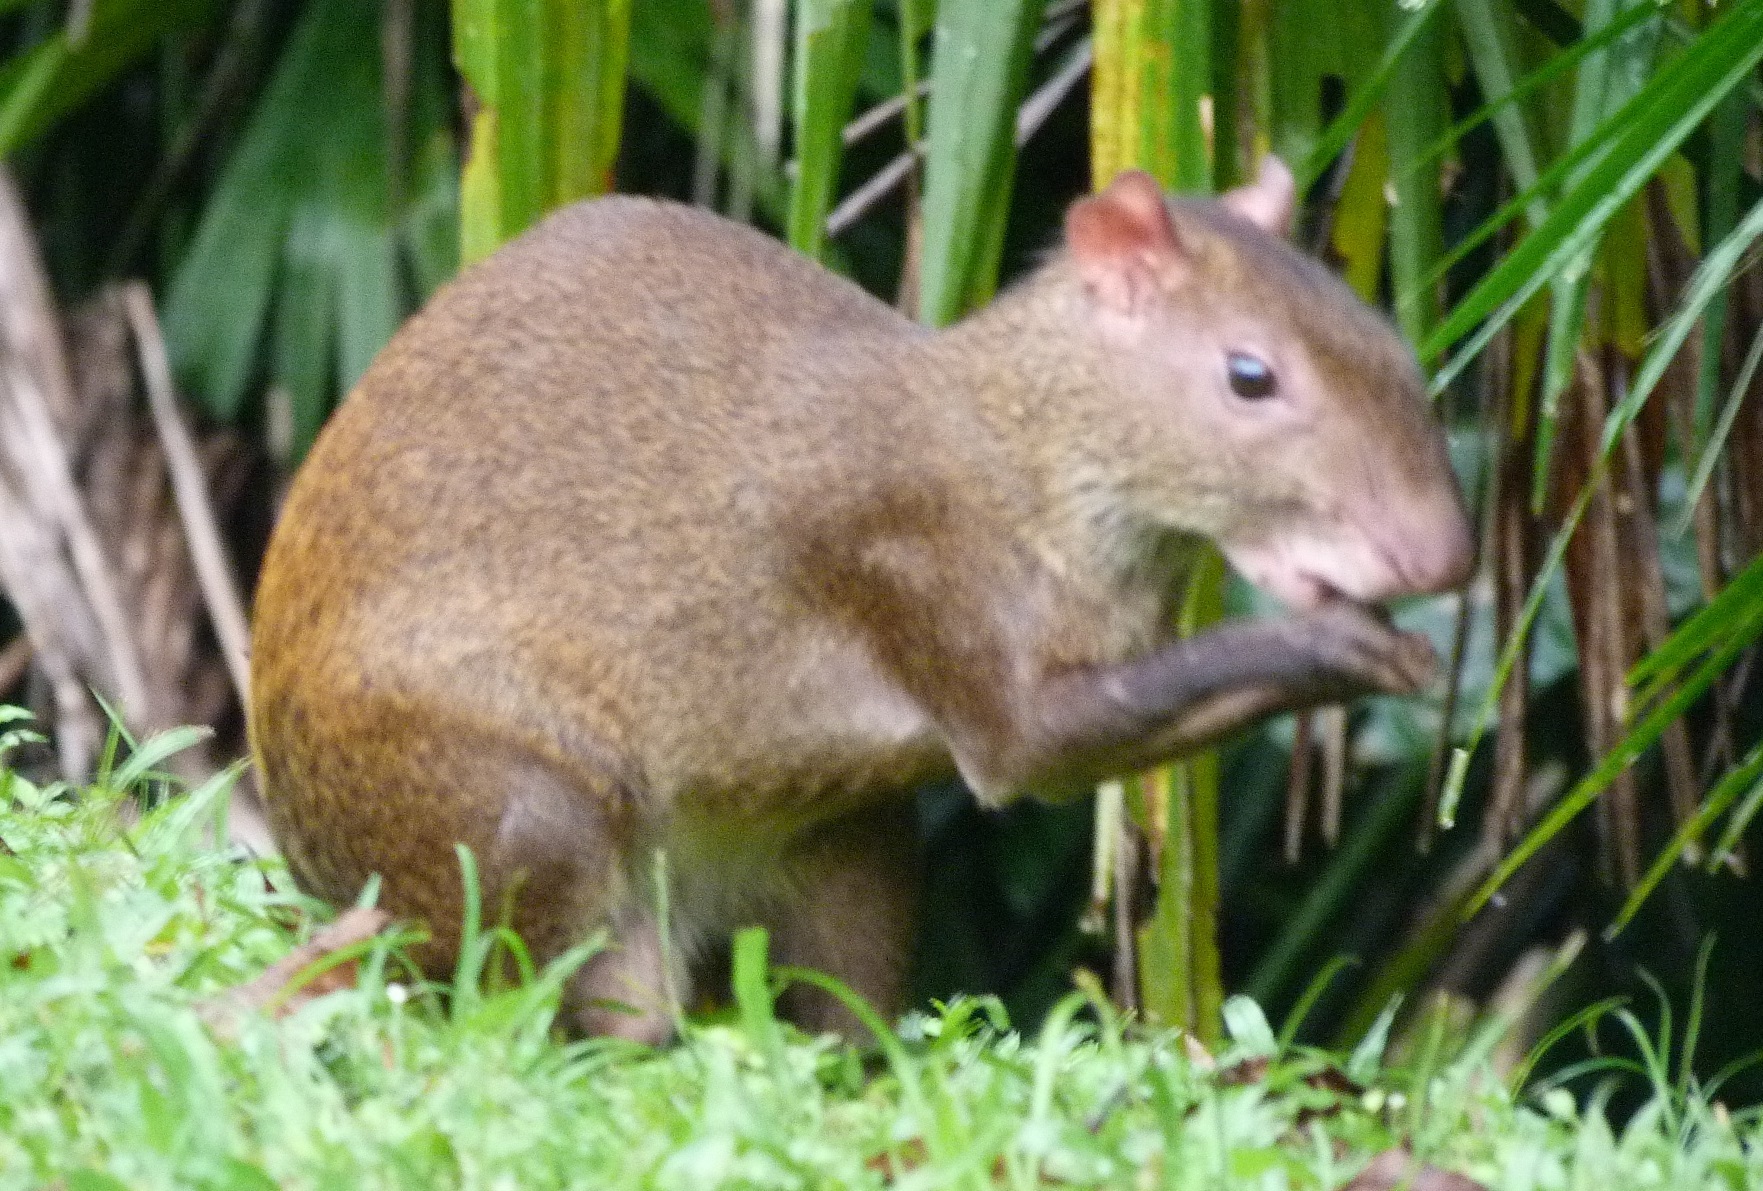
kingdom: Animalia
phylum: Chordata
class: Mammalia
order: Rodentia
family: Dasyproctidae
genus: Dasyprocta
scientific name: Dasyprocta punctata
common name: Central american agouti
